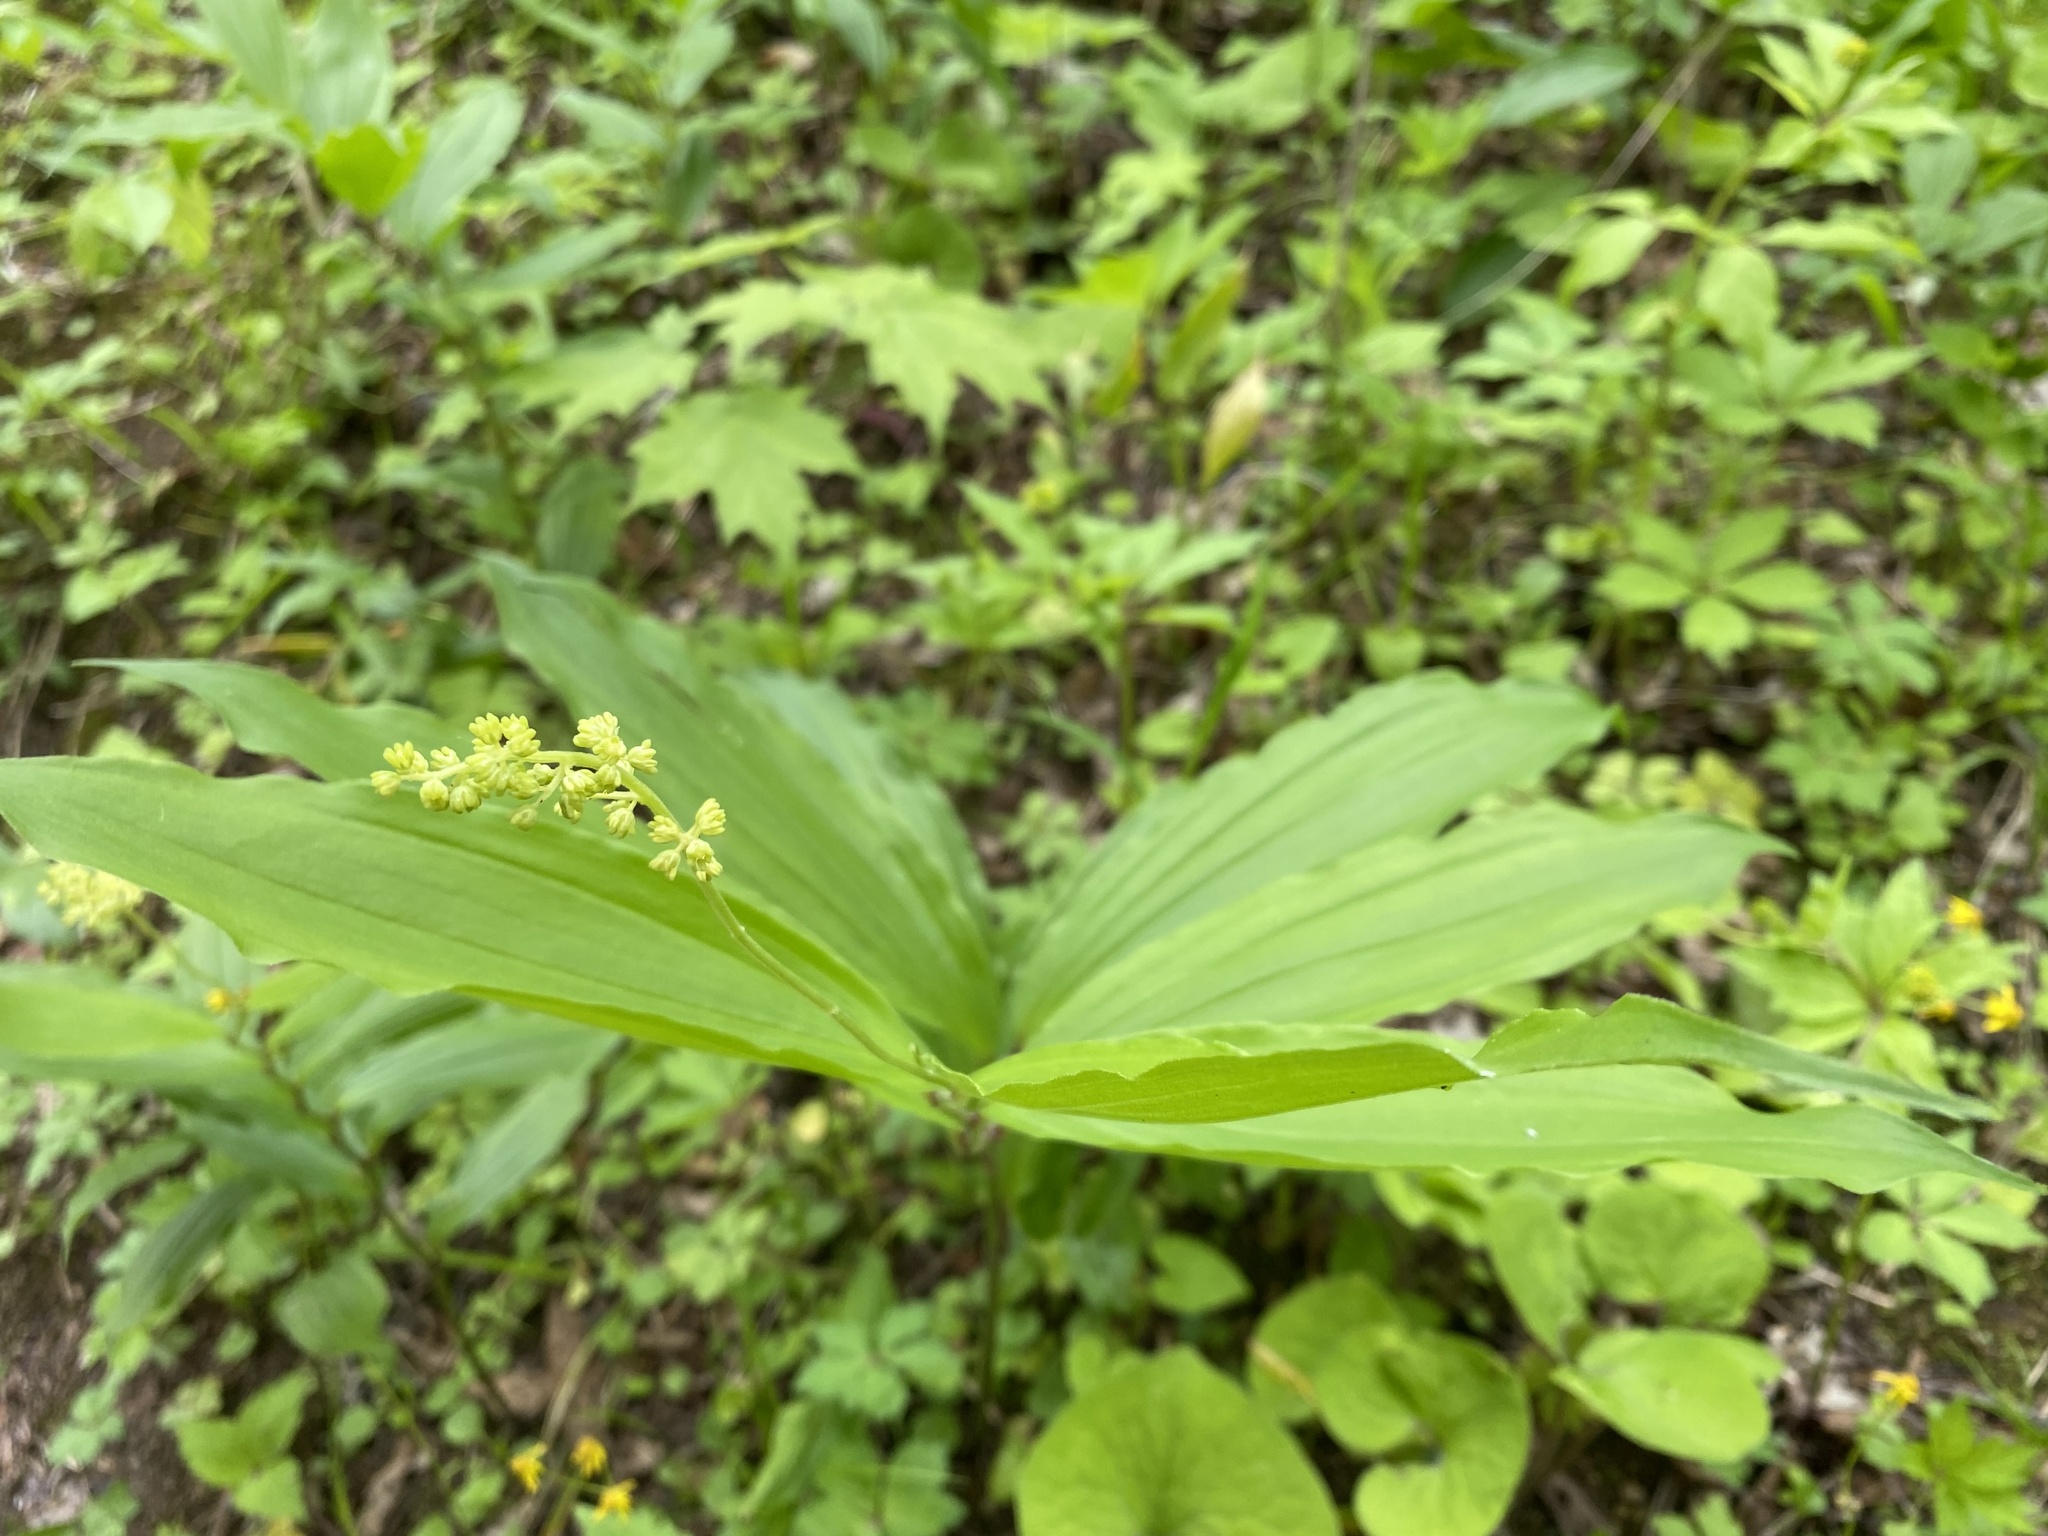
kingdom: Plantae
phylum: Tracheophyta
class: Liliopsida
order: Asparagales
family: Asparagaceae
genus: Maianthemum
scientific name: Maianthemum racemosum
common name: False spikenard
